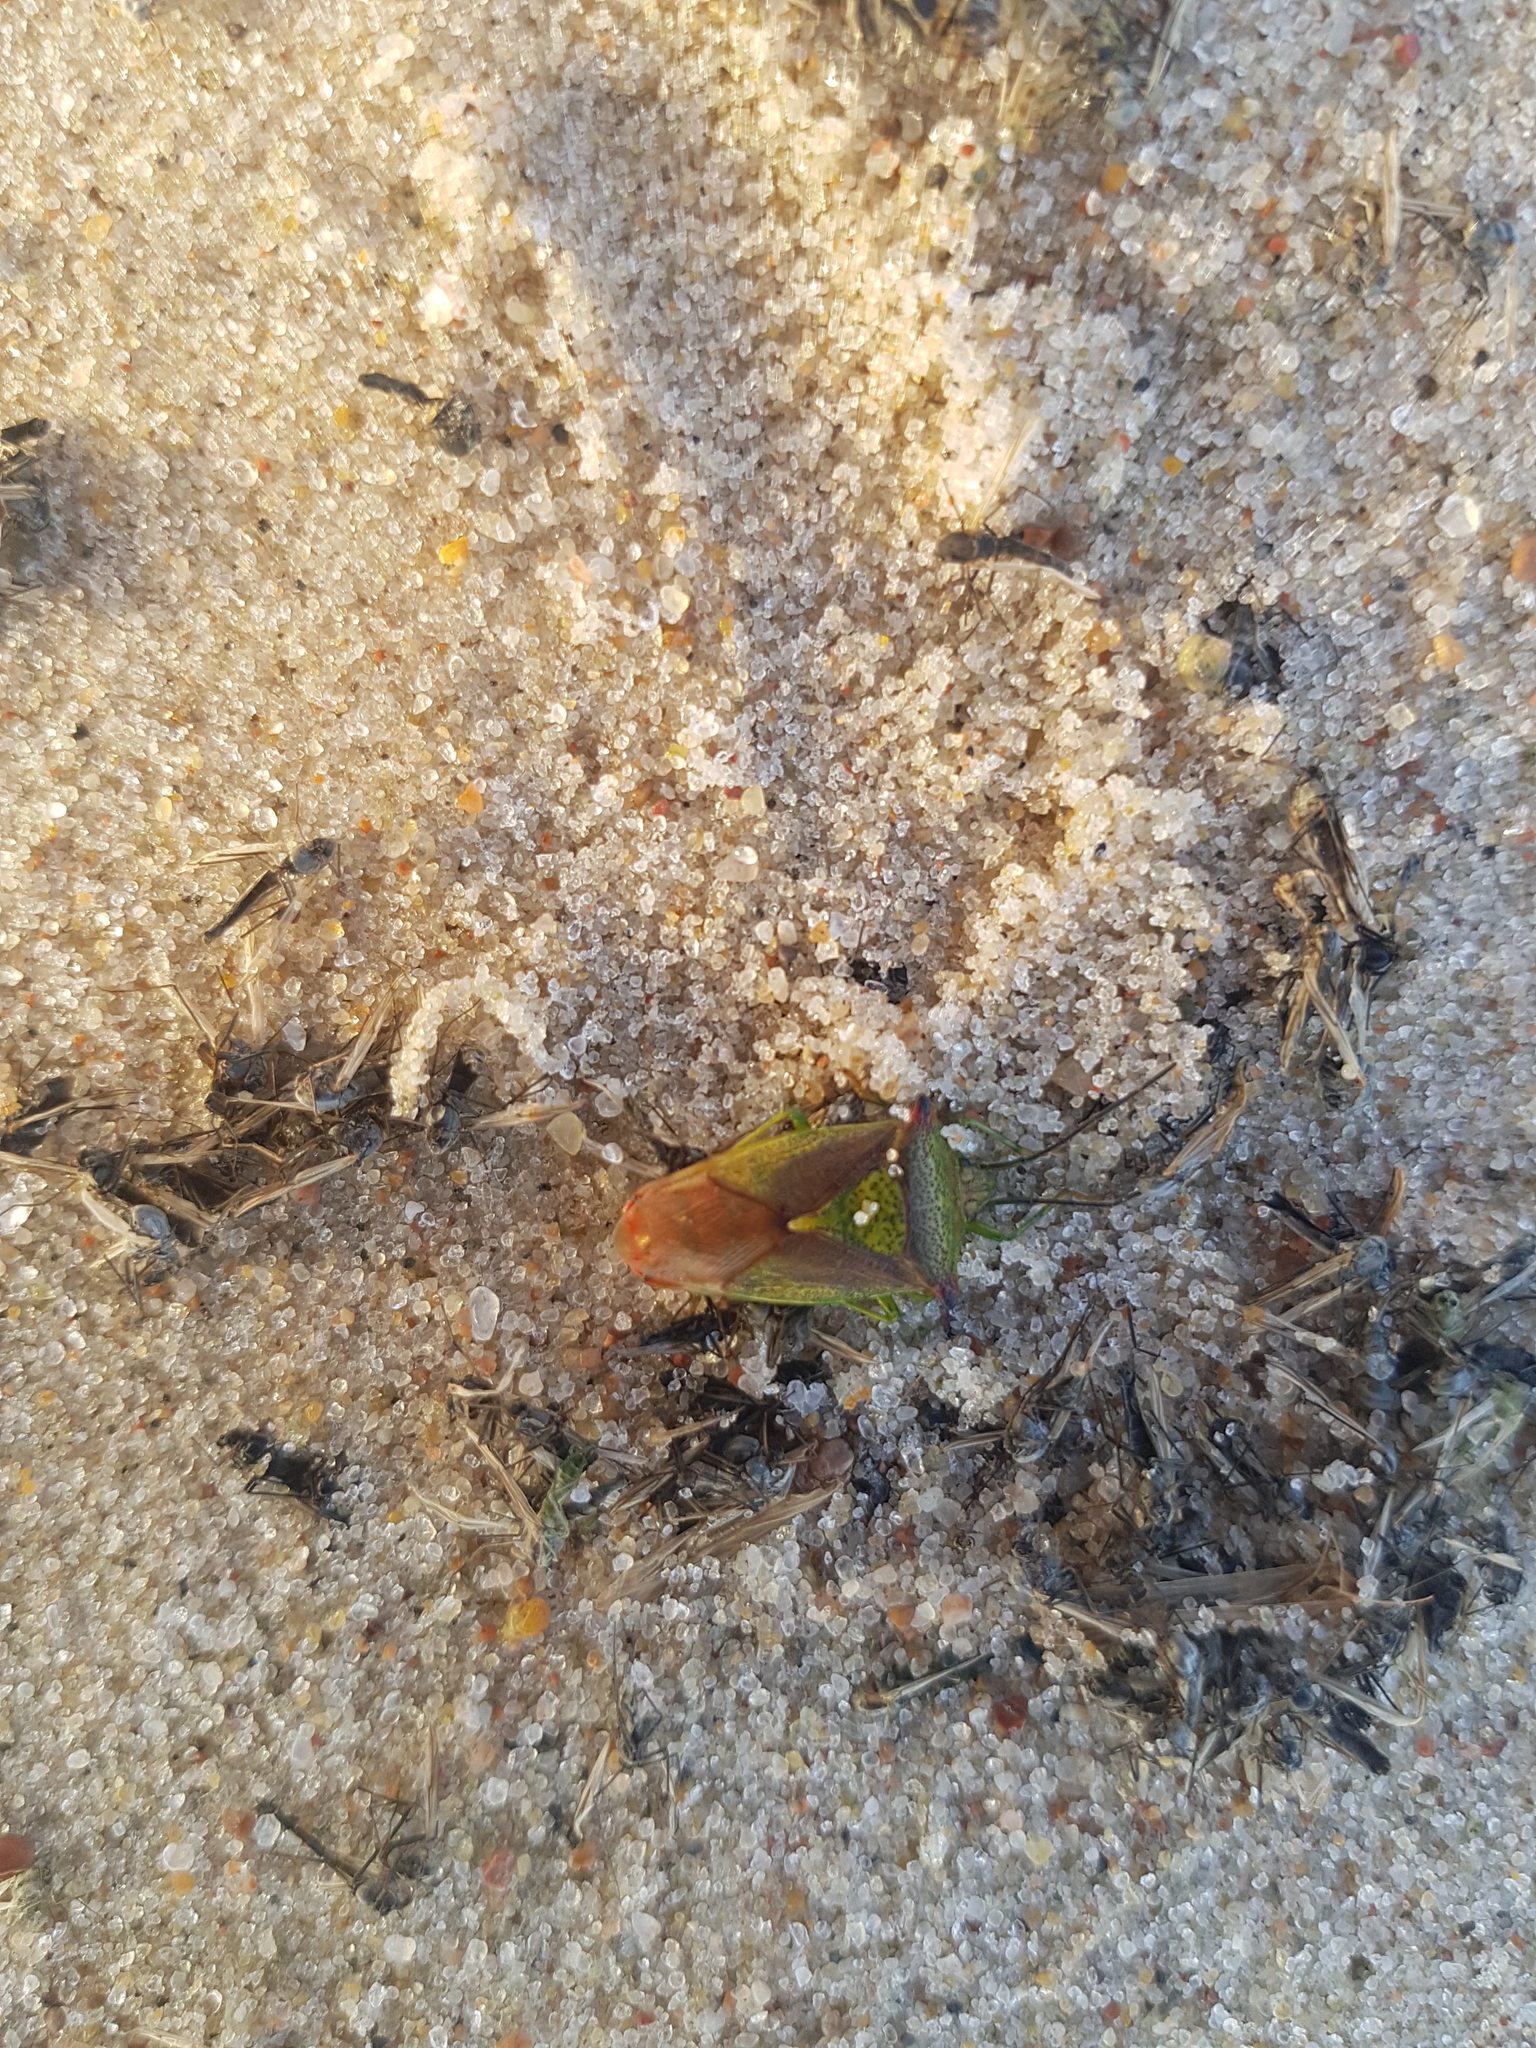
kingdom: Animalia
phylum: Arthropoda
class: Insecta
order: Hemiptera
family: Acanthosomatidae
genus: Acanthosoma
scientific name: Acanthosoma haemorrhoidale
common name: Hawthorn shieldbug
